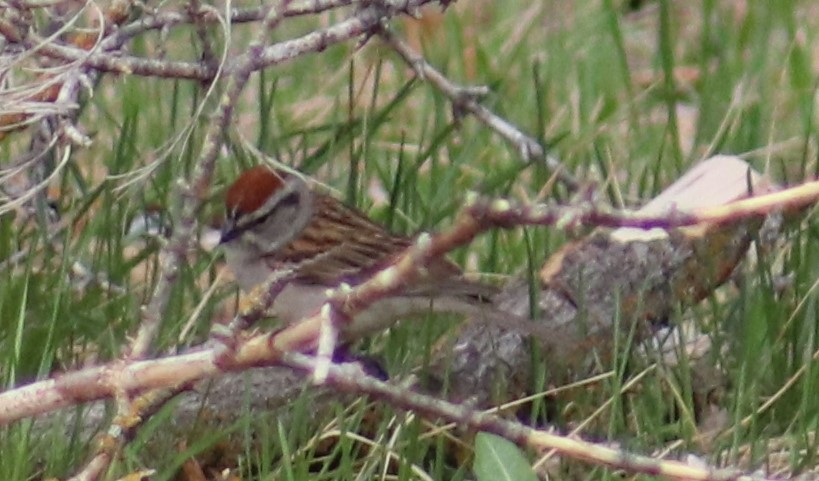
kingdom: Animalia
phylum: Chordata
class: Aves
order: Passeriformes
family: Passerellidae
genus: Spizella
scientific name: Spizella passerina
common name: Chipping sparrow
